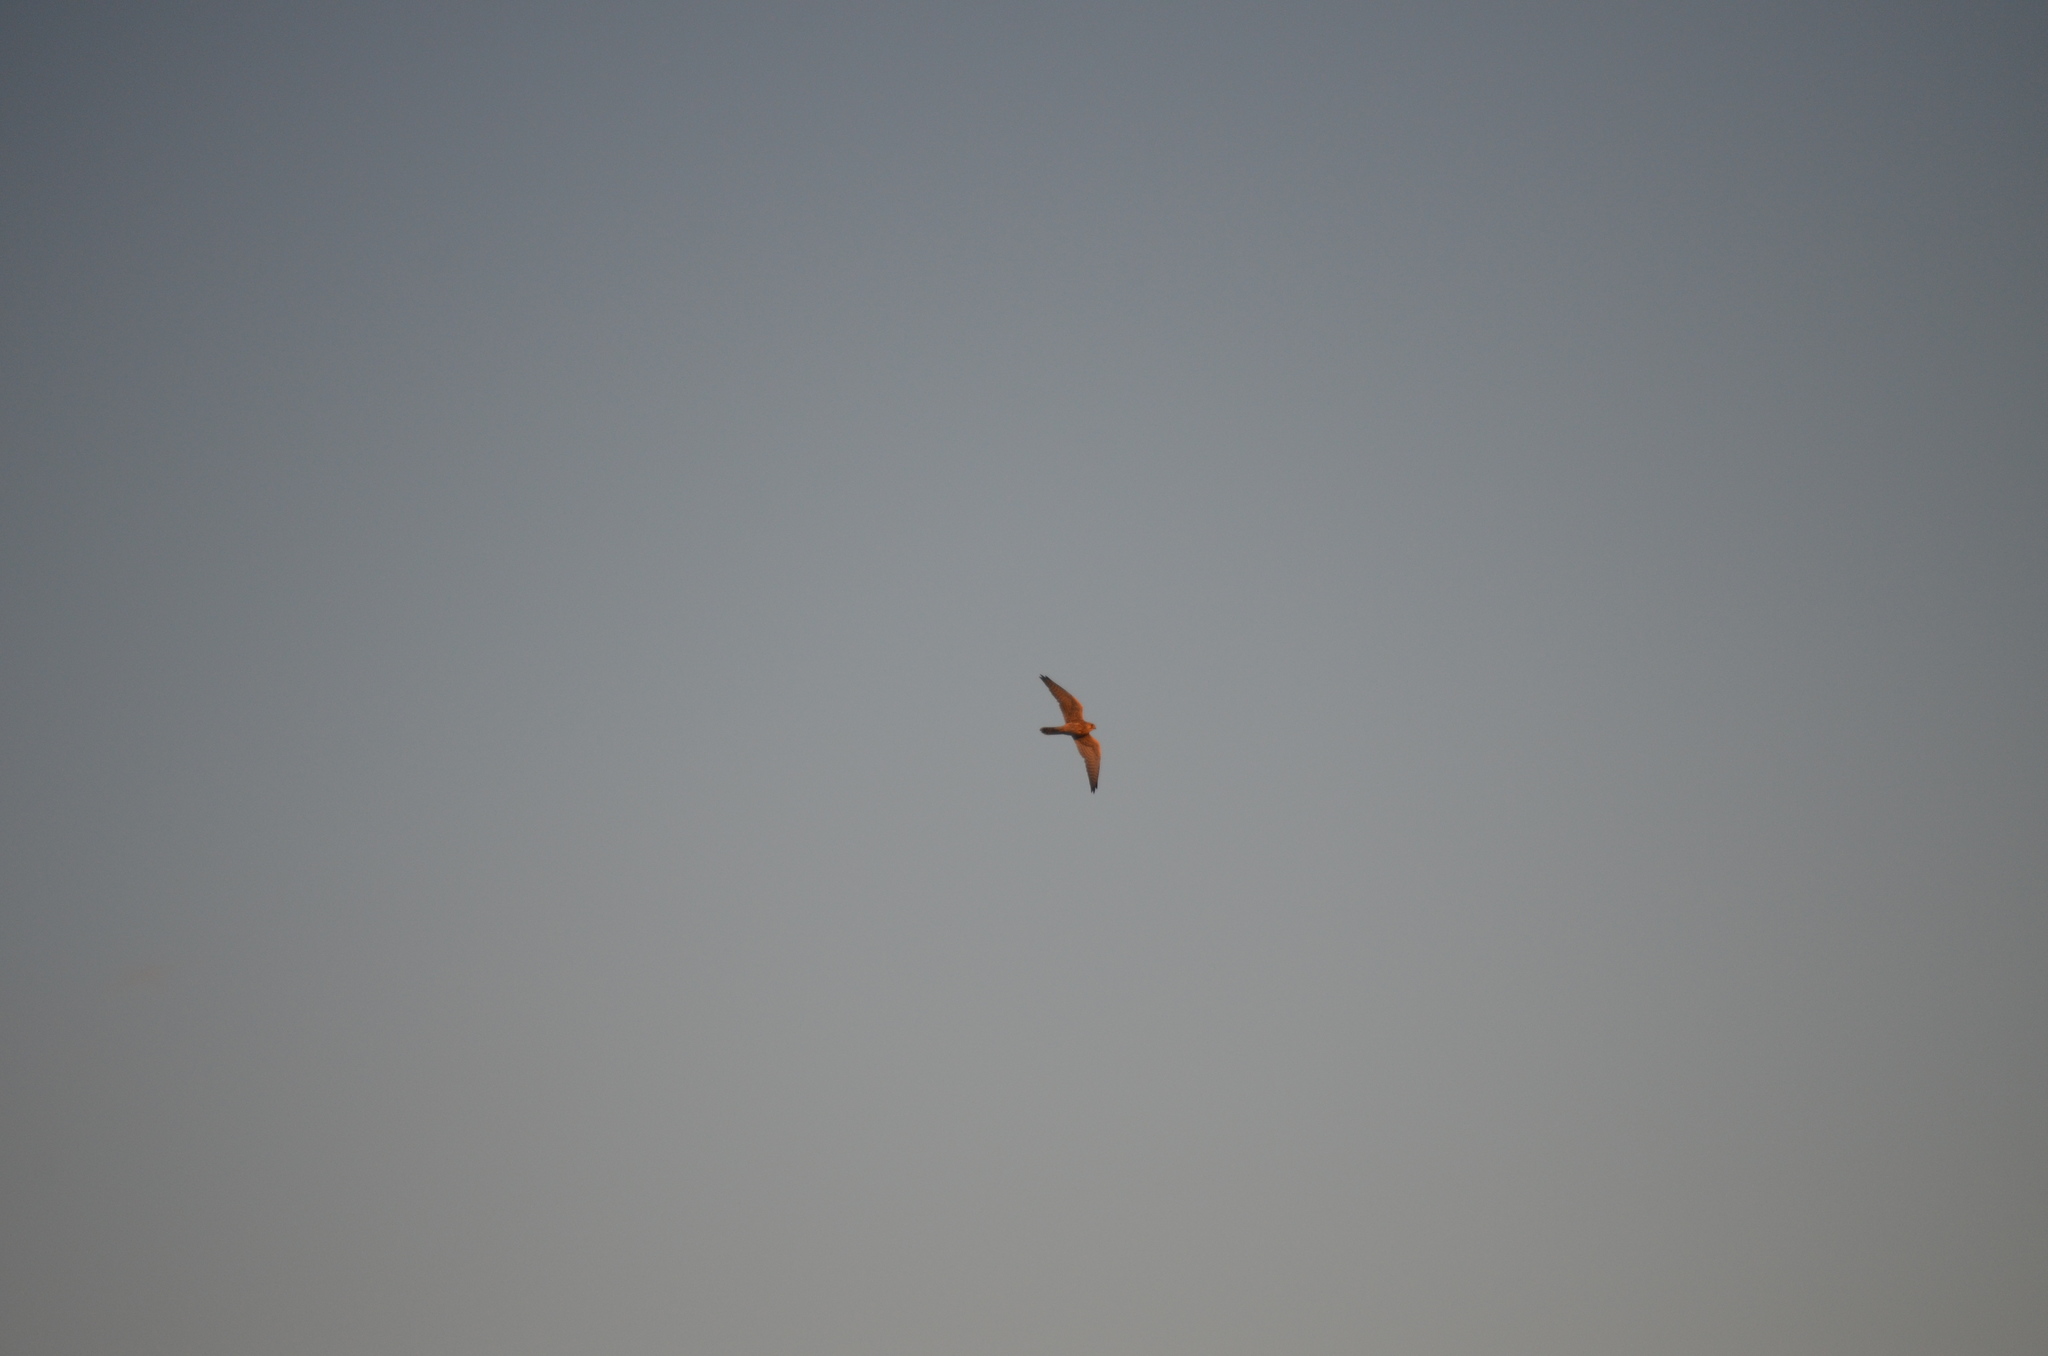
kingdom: Animalia
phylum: Chordata
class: Aves
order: Falconiformes
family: Falconidae
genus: Falco
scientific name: Falco tinnunculus
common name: Common kestrel
